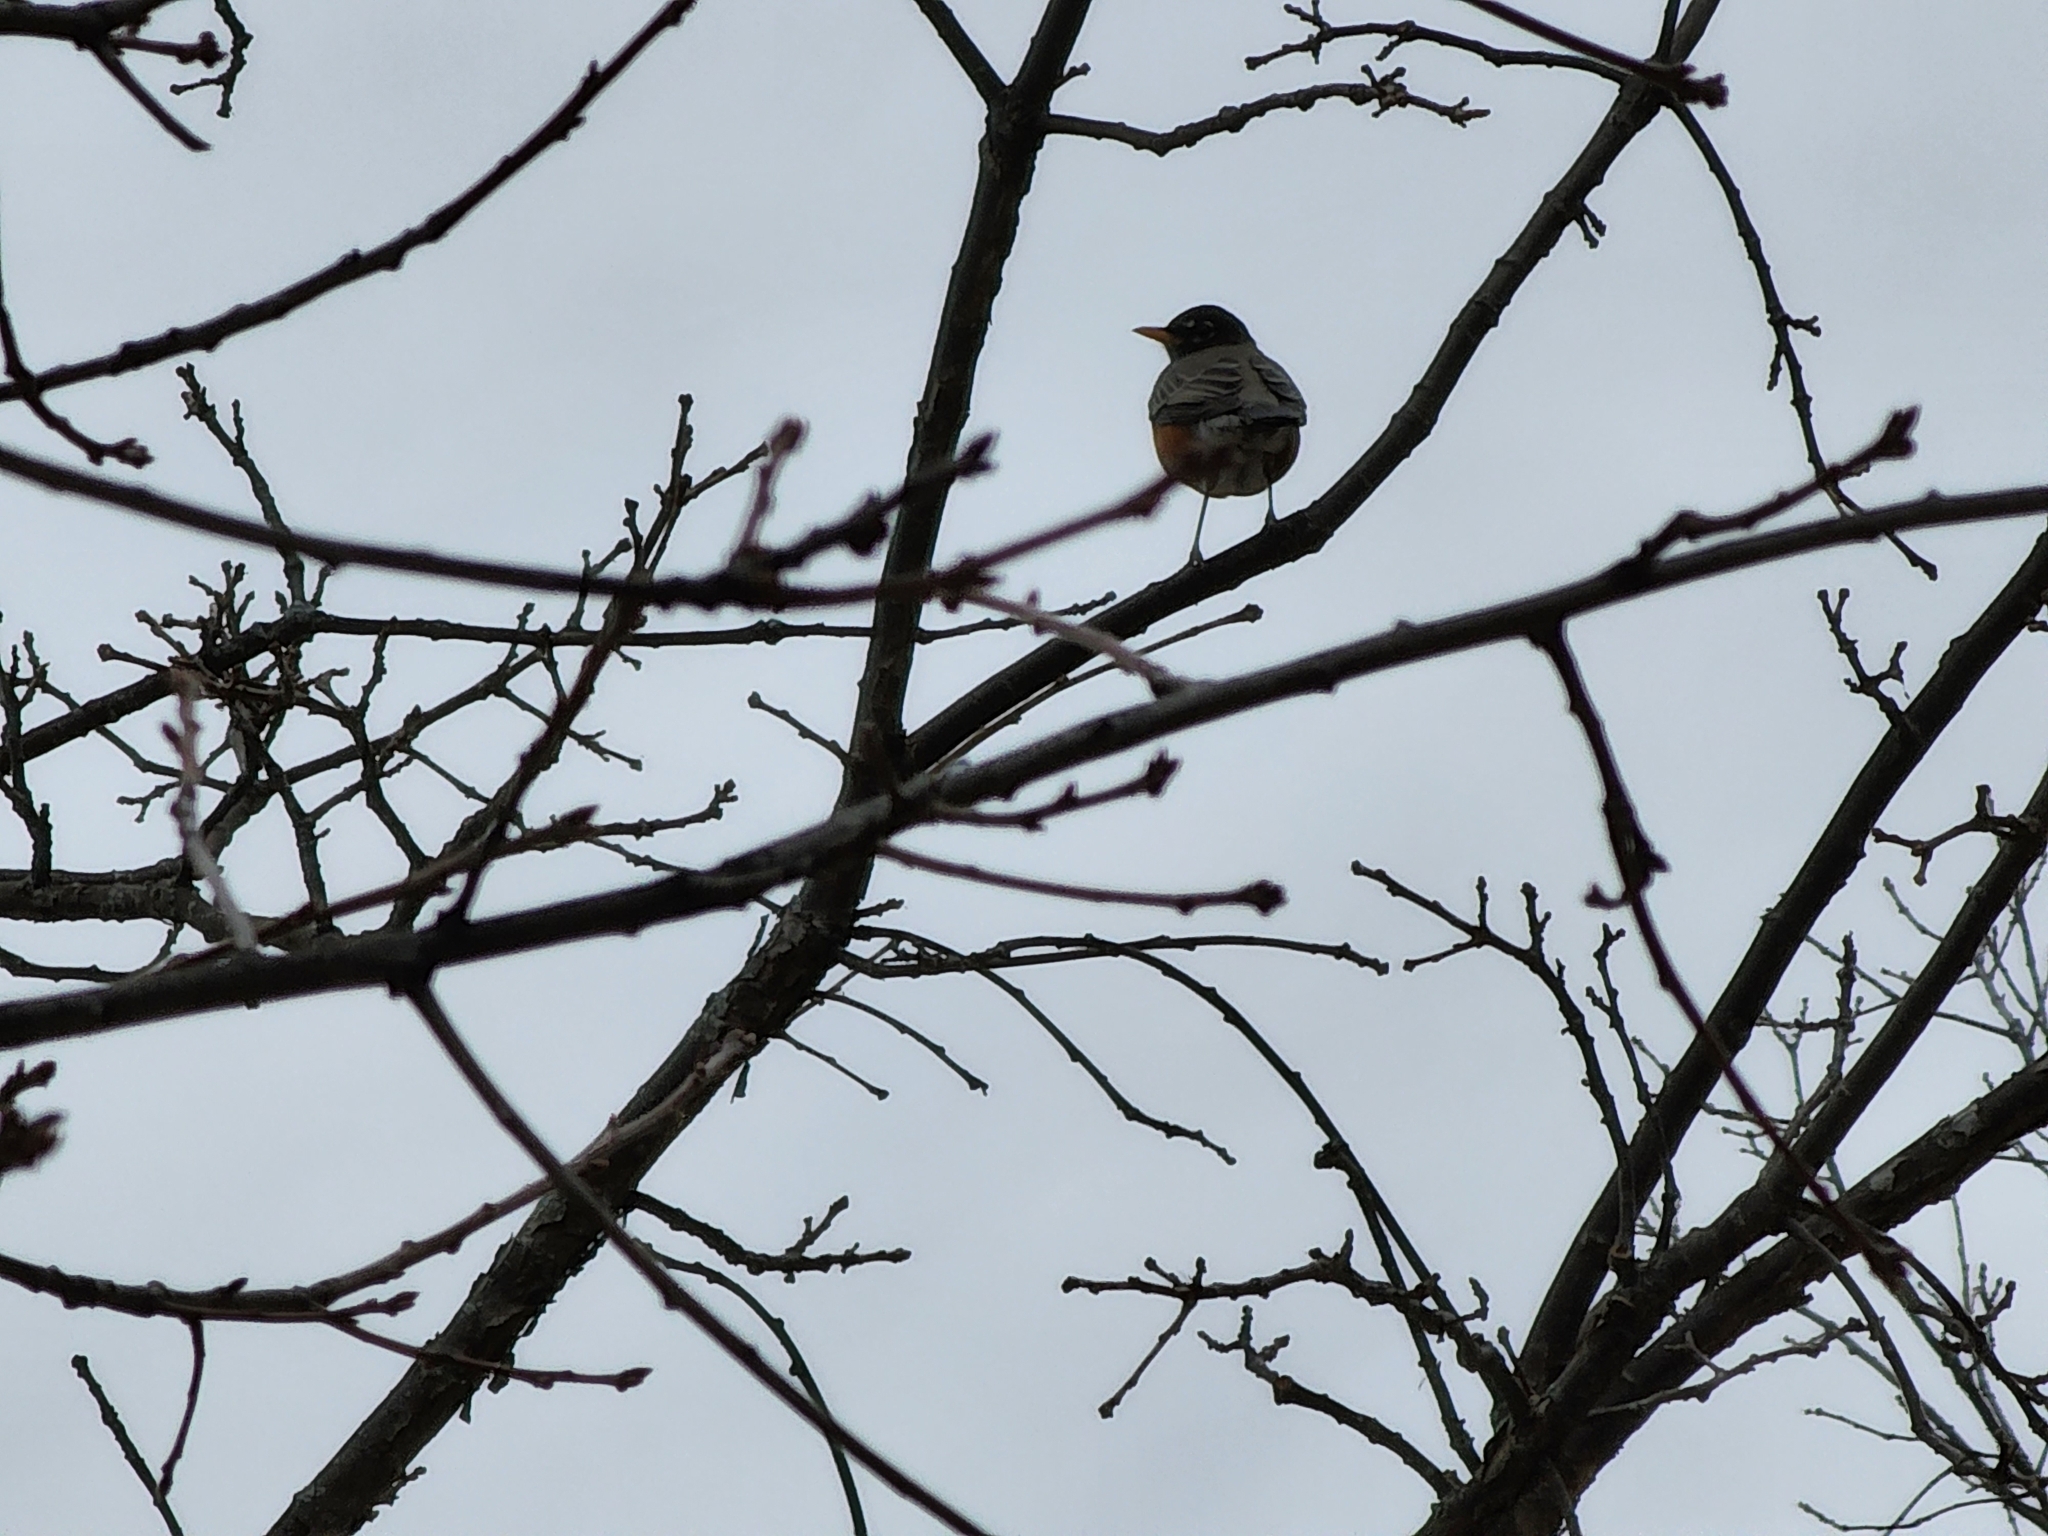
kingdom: Animalia
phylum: Chordata
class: Aves
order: Passeriformes
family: Turdidae
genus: Turdus
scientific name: Turdus migratorius
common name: American robin
